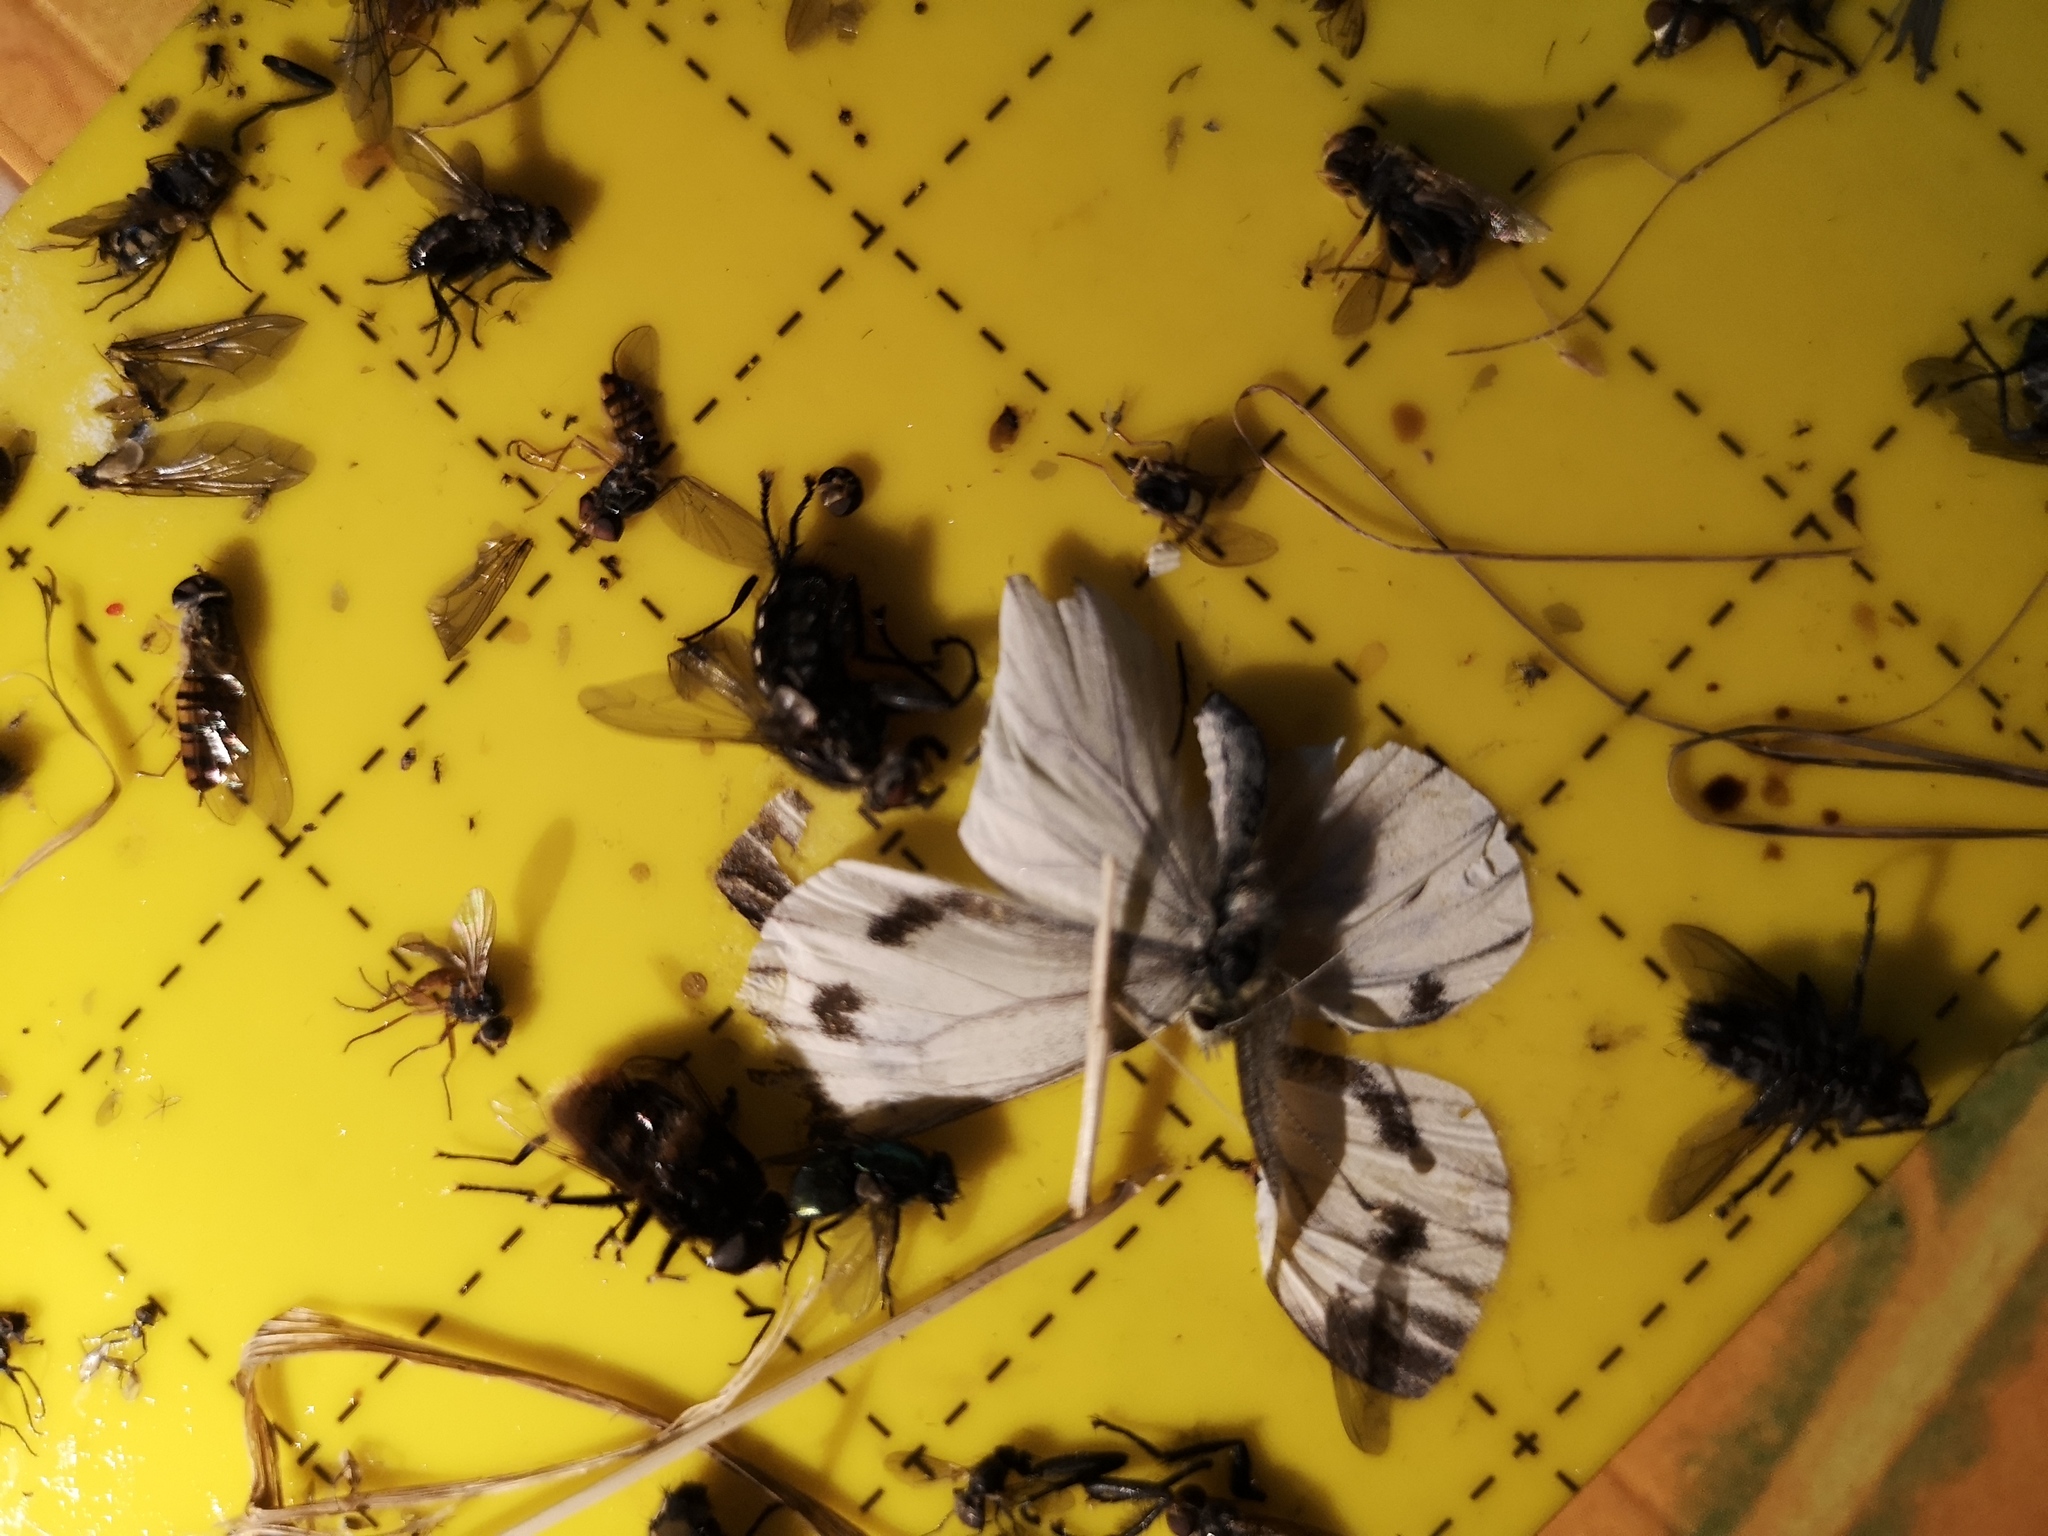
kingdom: Animalia
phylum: Arthropoda
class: Insecta
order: Lepidoptera
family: Pieridae
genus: Pieris
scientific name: Pieris napi
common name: Green-veined white
